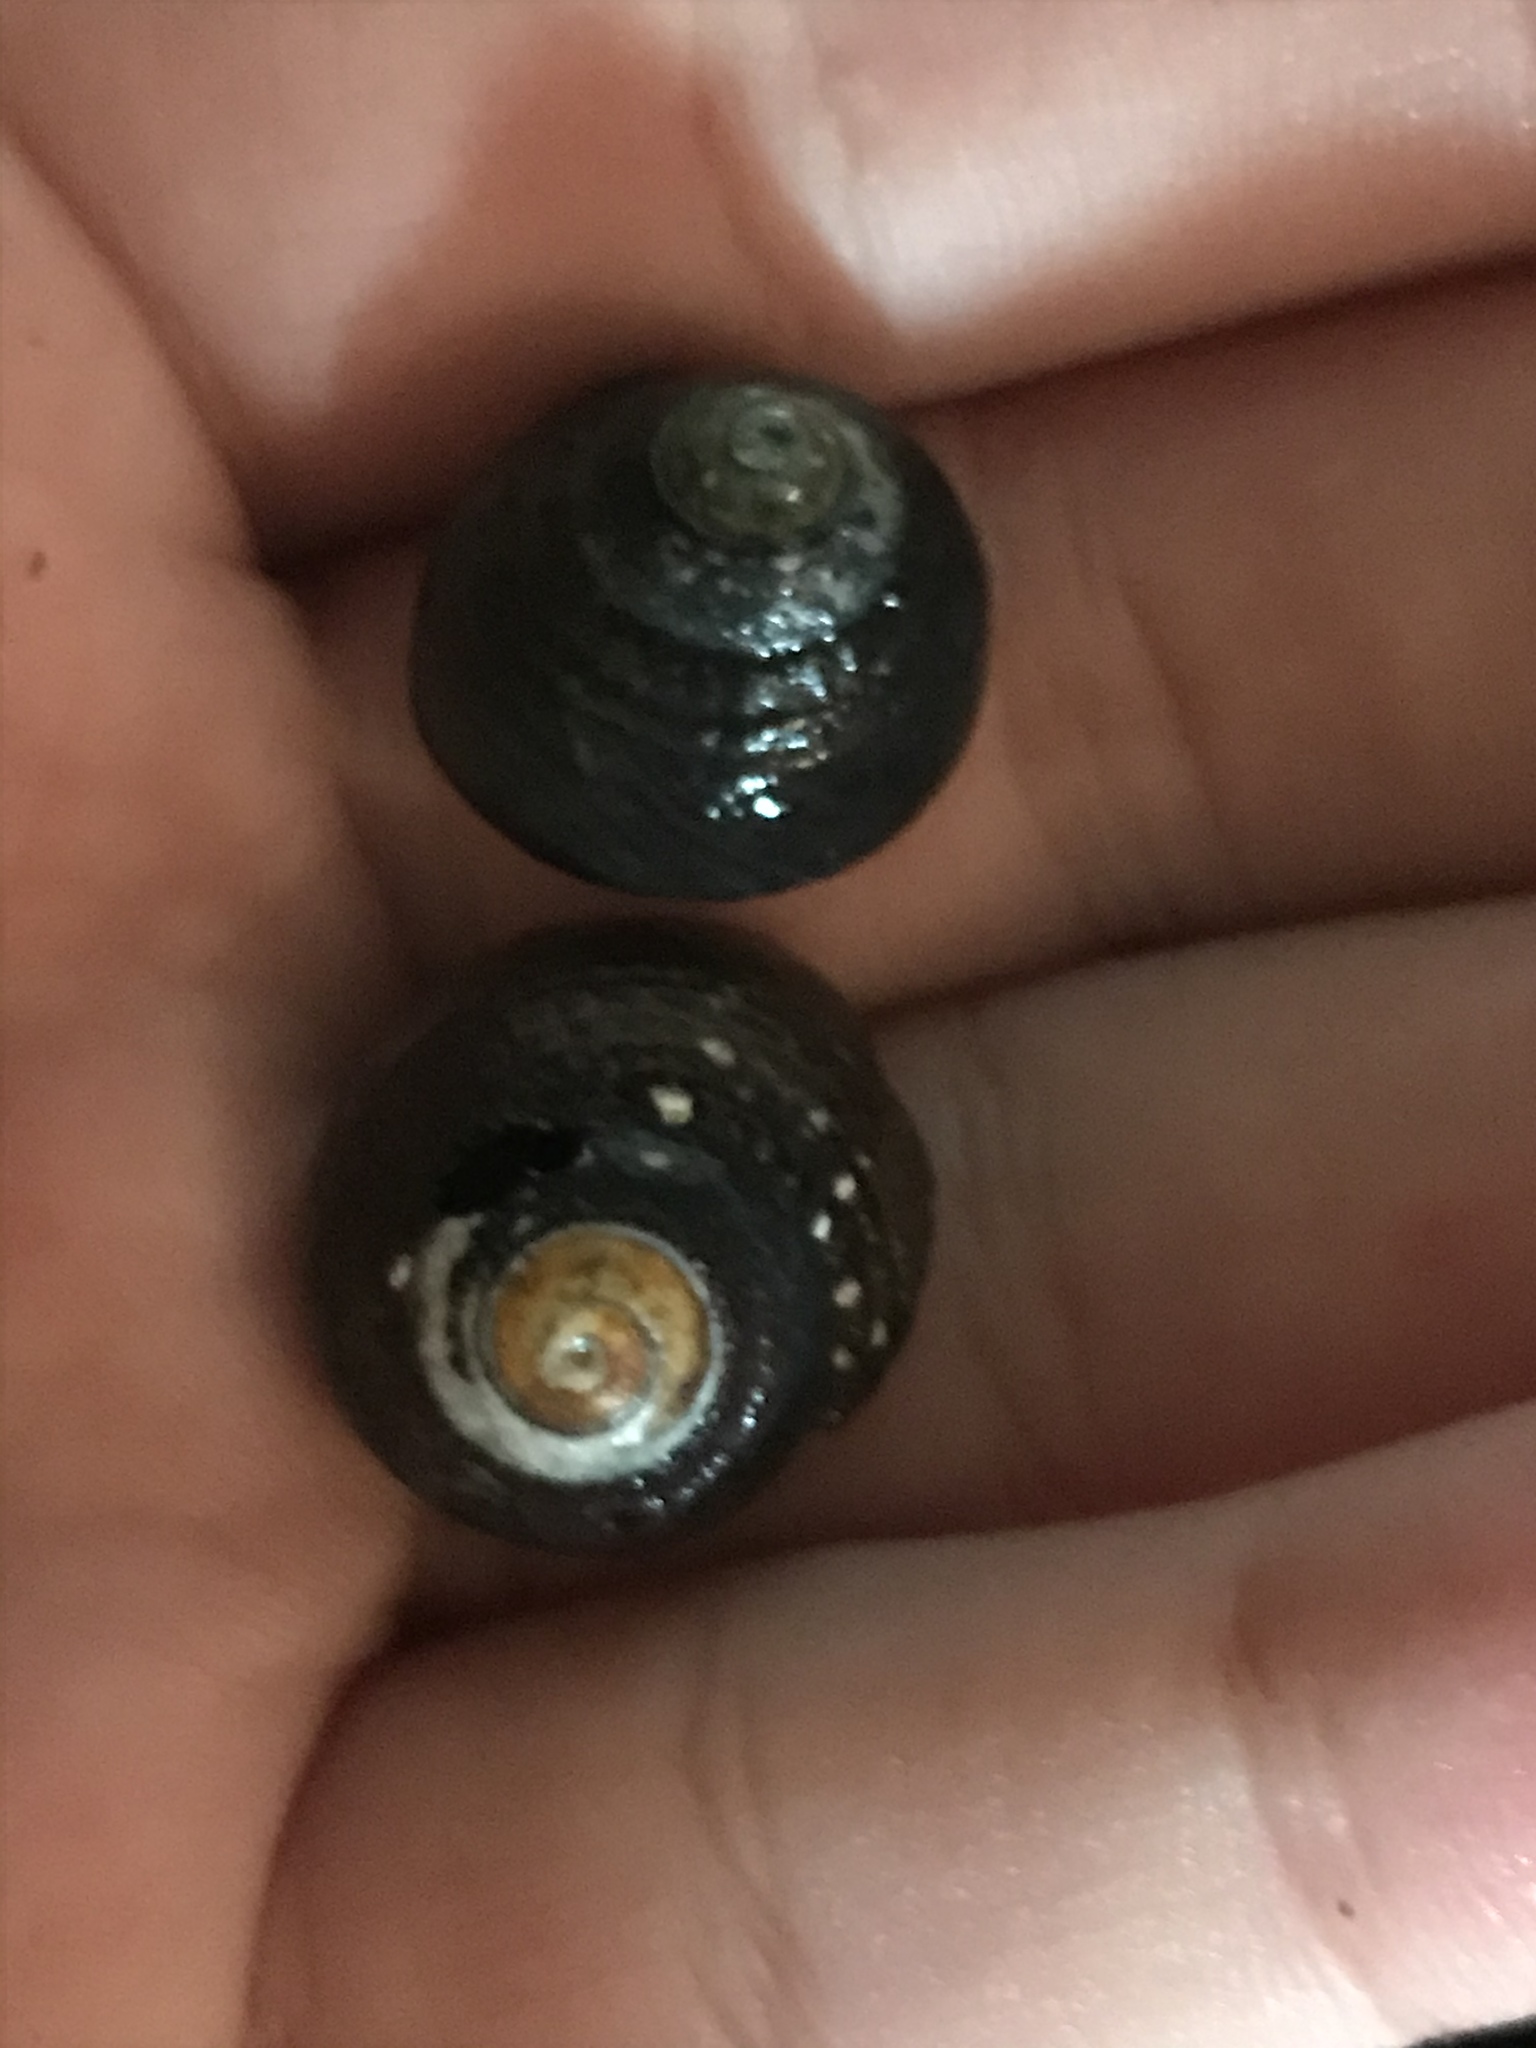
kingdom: Animalia
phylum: Mollusca
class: Gastropoda
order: Trochida
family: Tegulidae
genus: Tegula
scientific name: Tegula funebralis
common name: Black tegula
